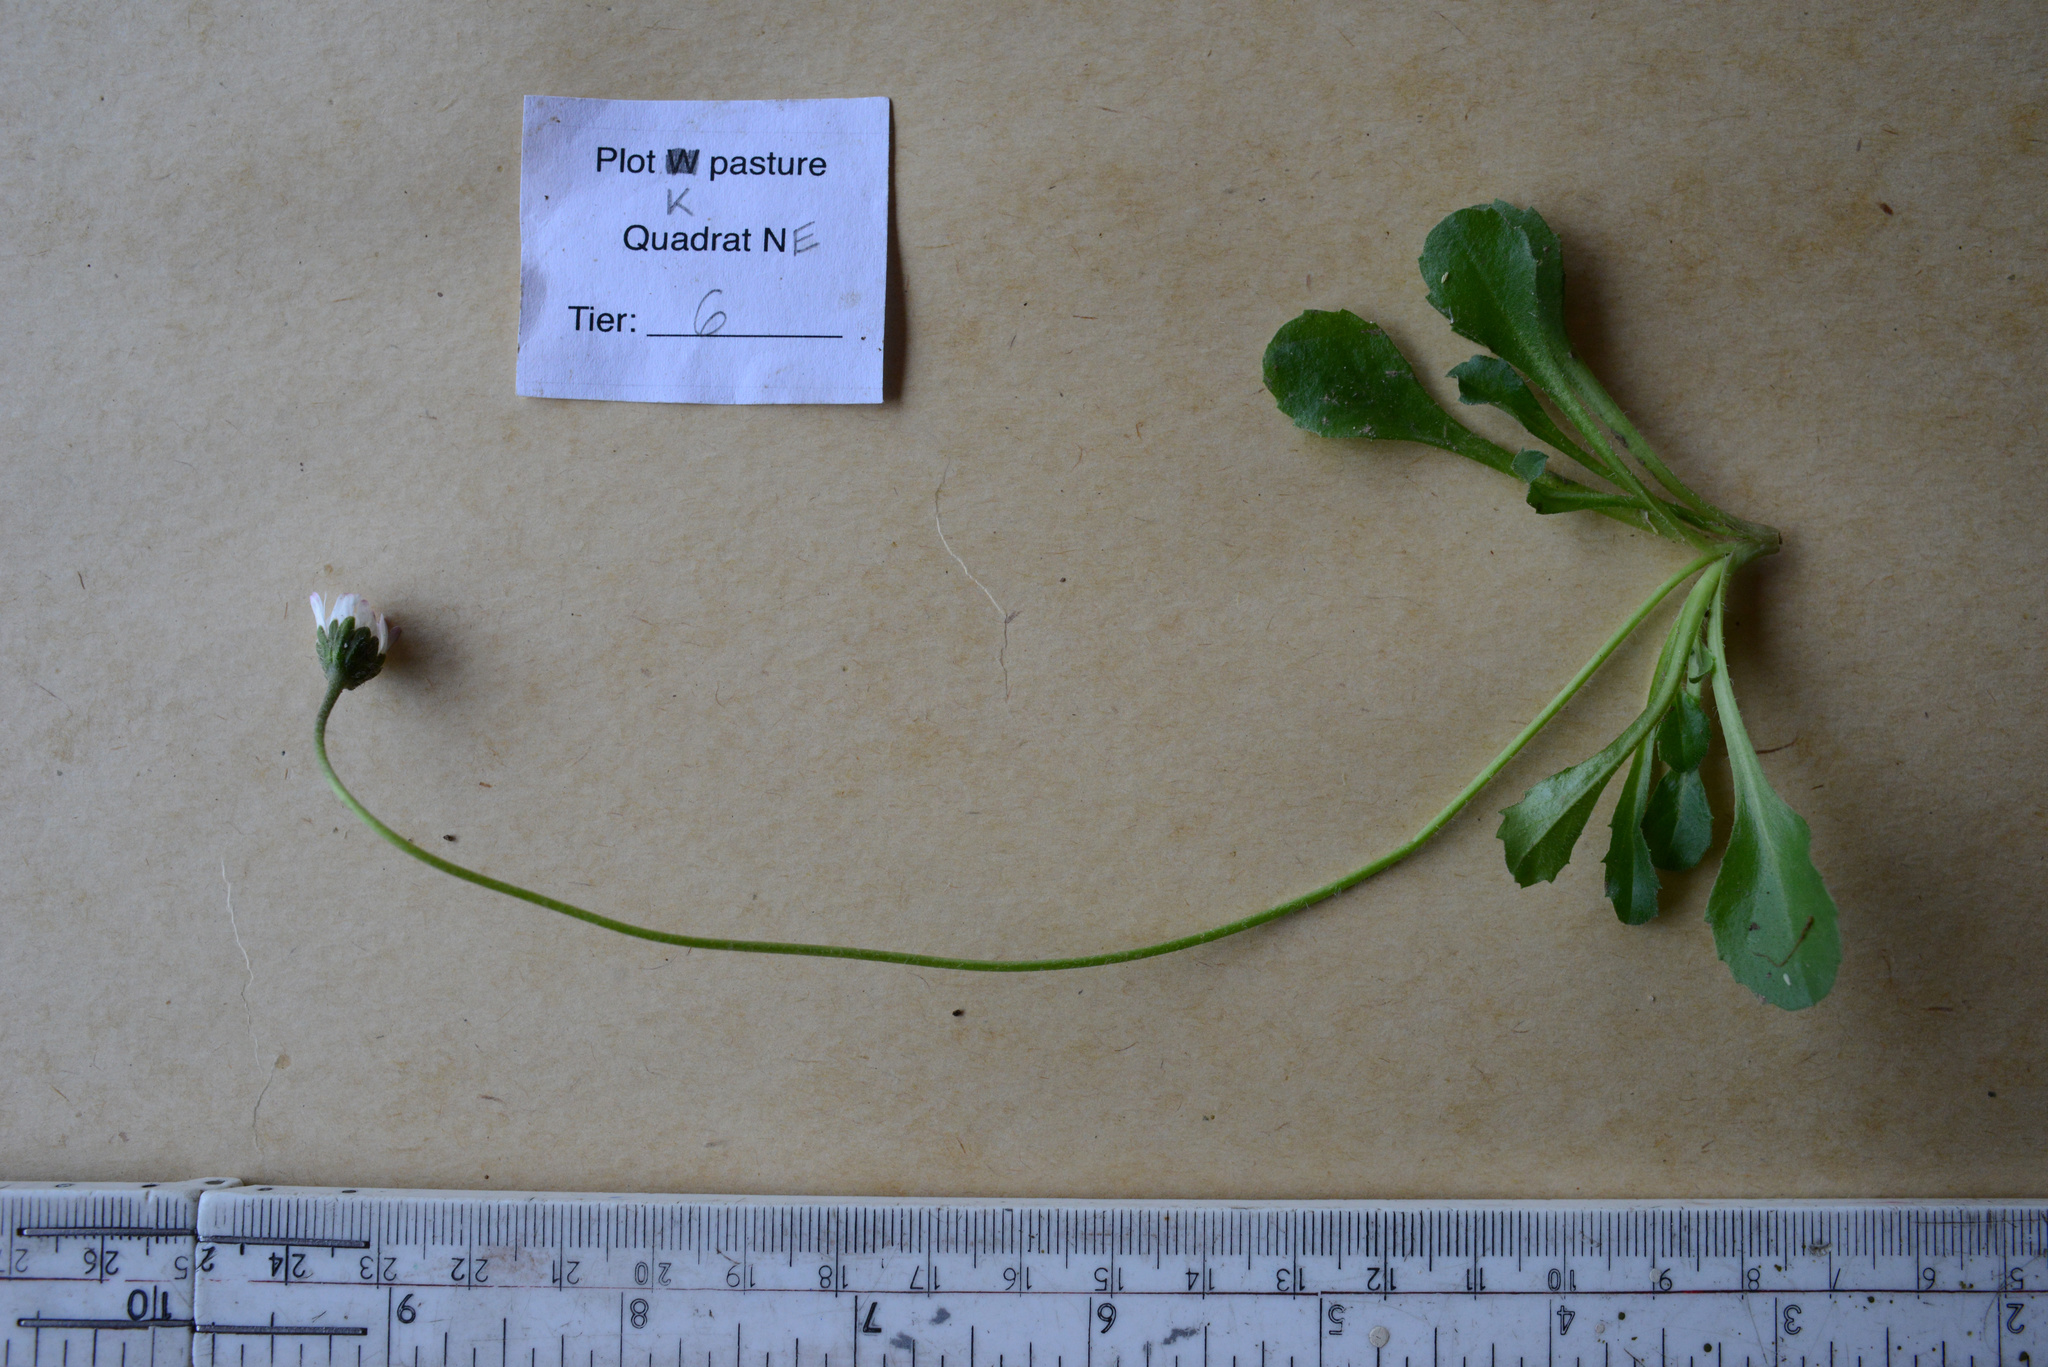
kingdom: Plantae
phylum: Tracheophyta
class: Magnoliopsida
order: Asterales
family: Asteraceae
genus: Bellis
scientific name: Bellis perennis
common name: Lawndaisy
